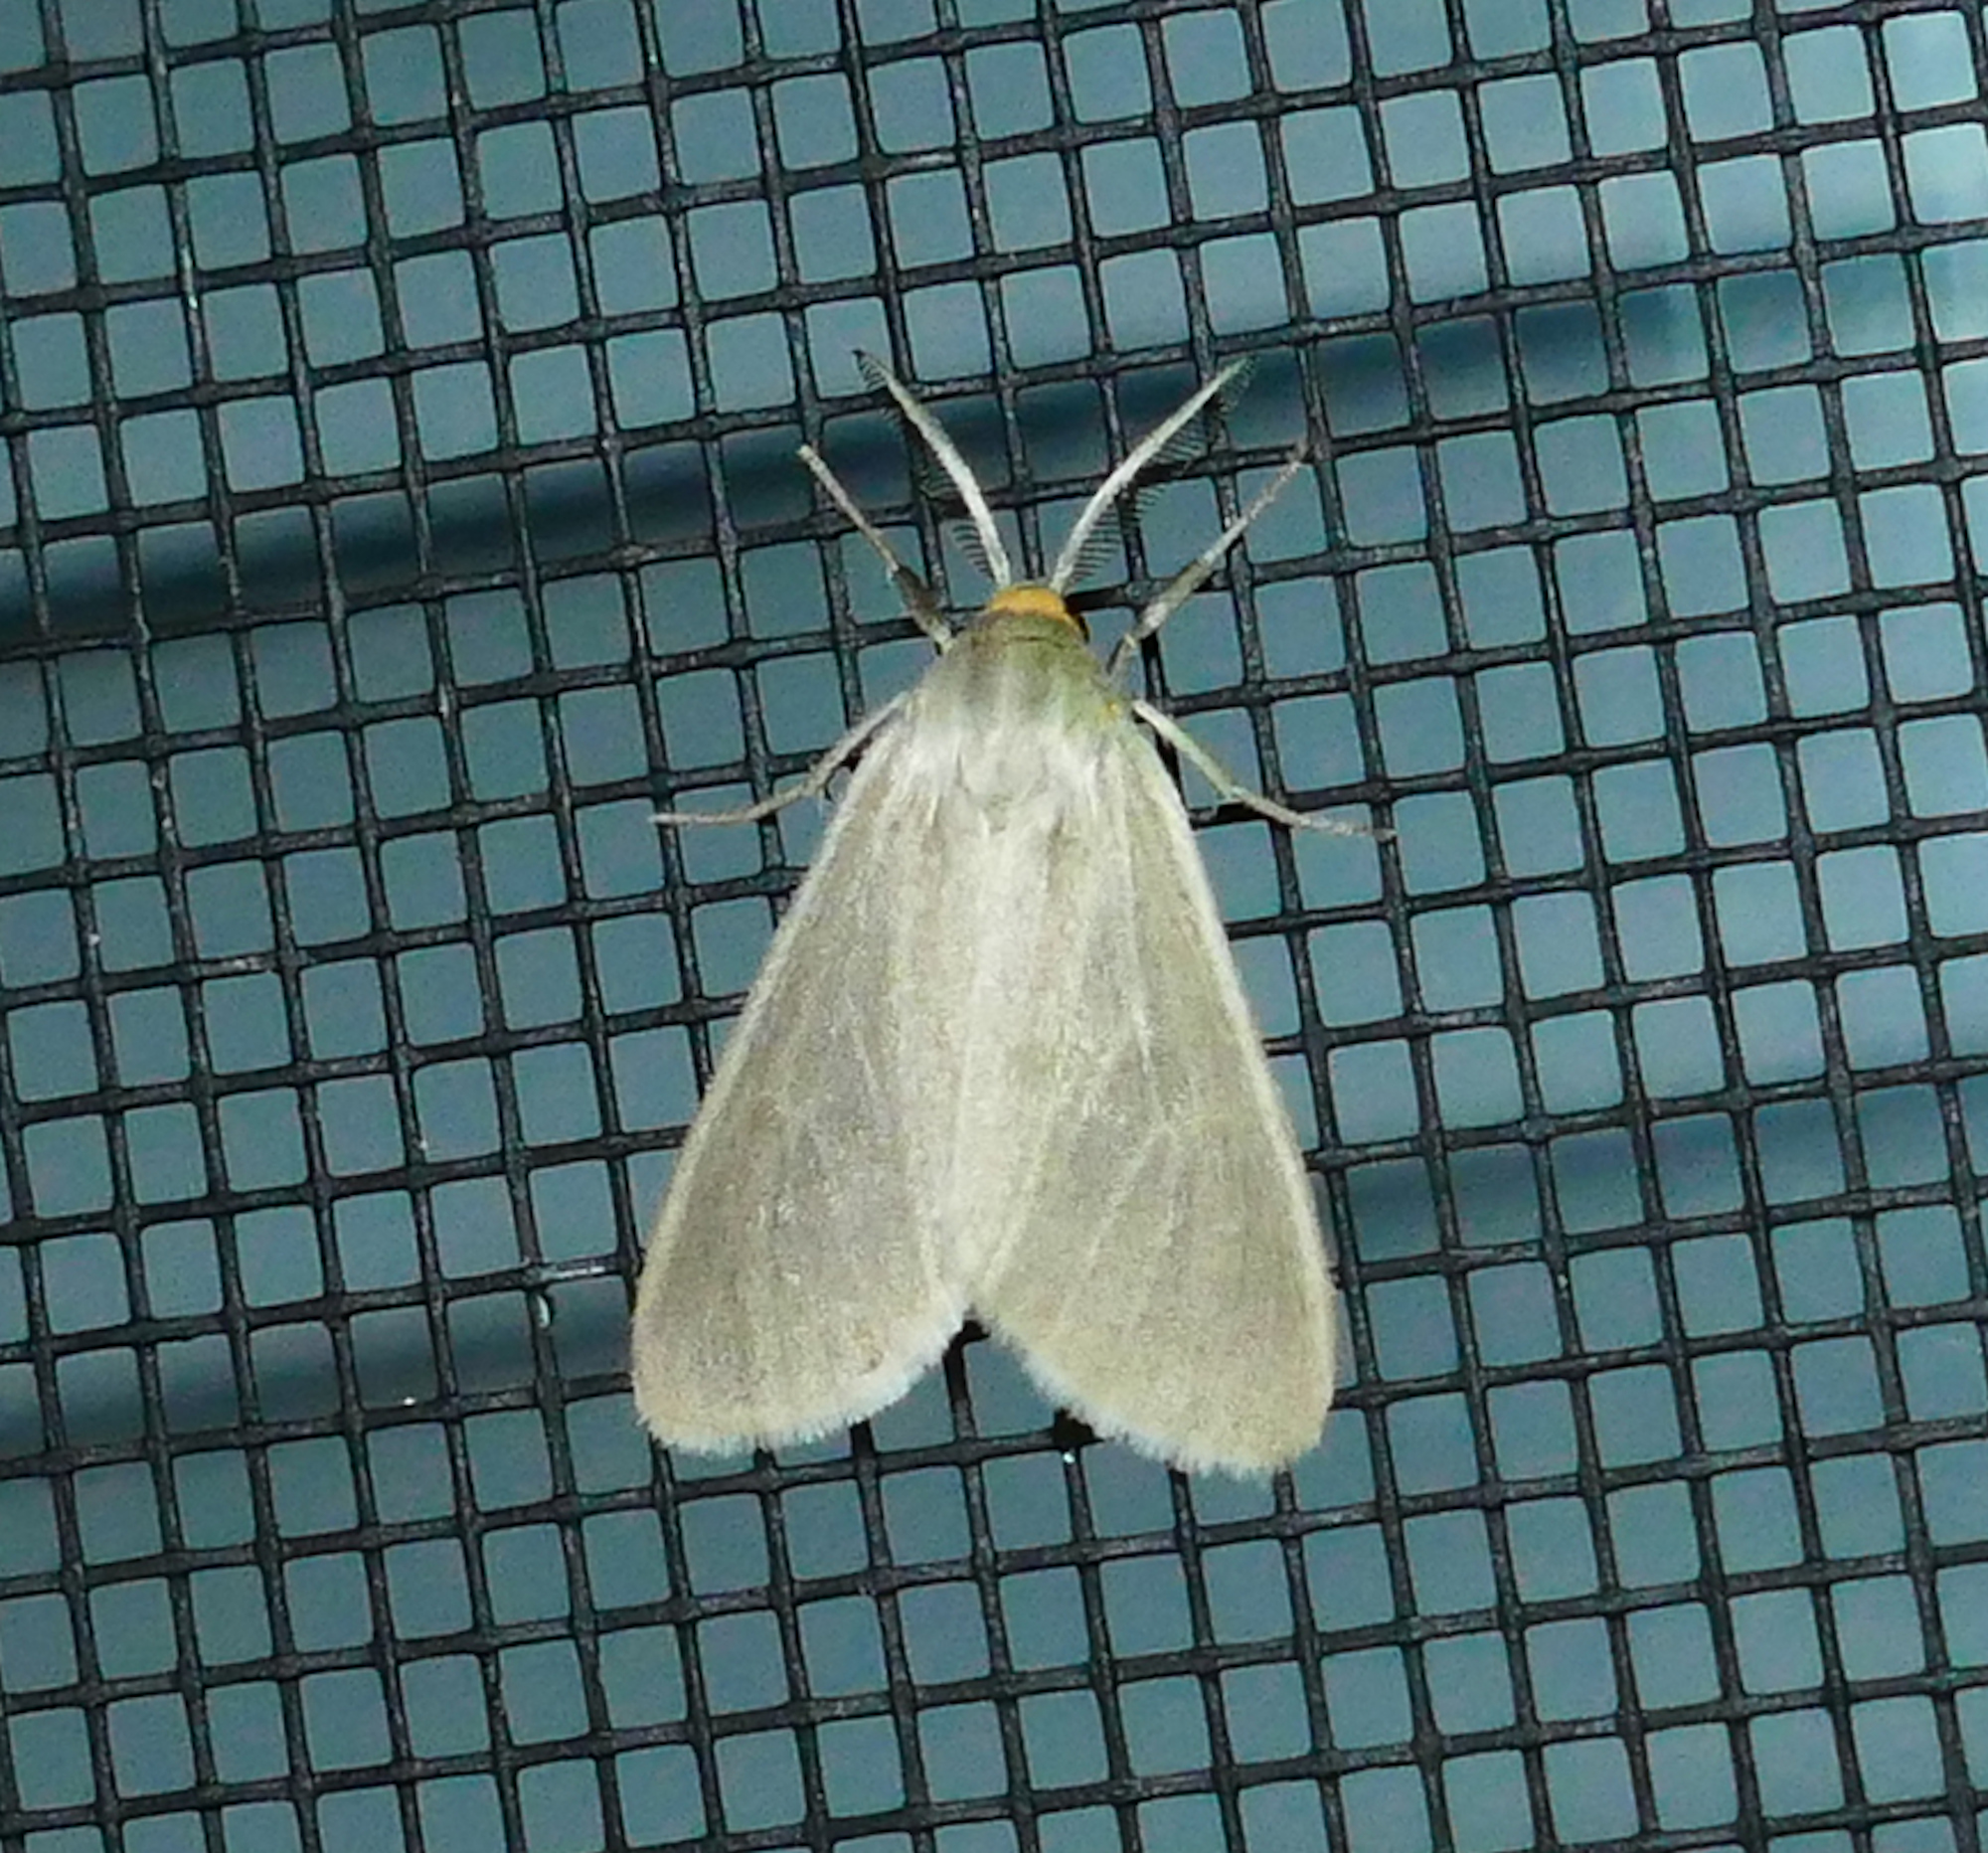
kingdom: Animalia
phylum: Arthropoda
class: Insecta
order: Lepidoptera
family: Erebidae
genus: Neoplynes
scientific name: Neoplynes eudora
